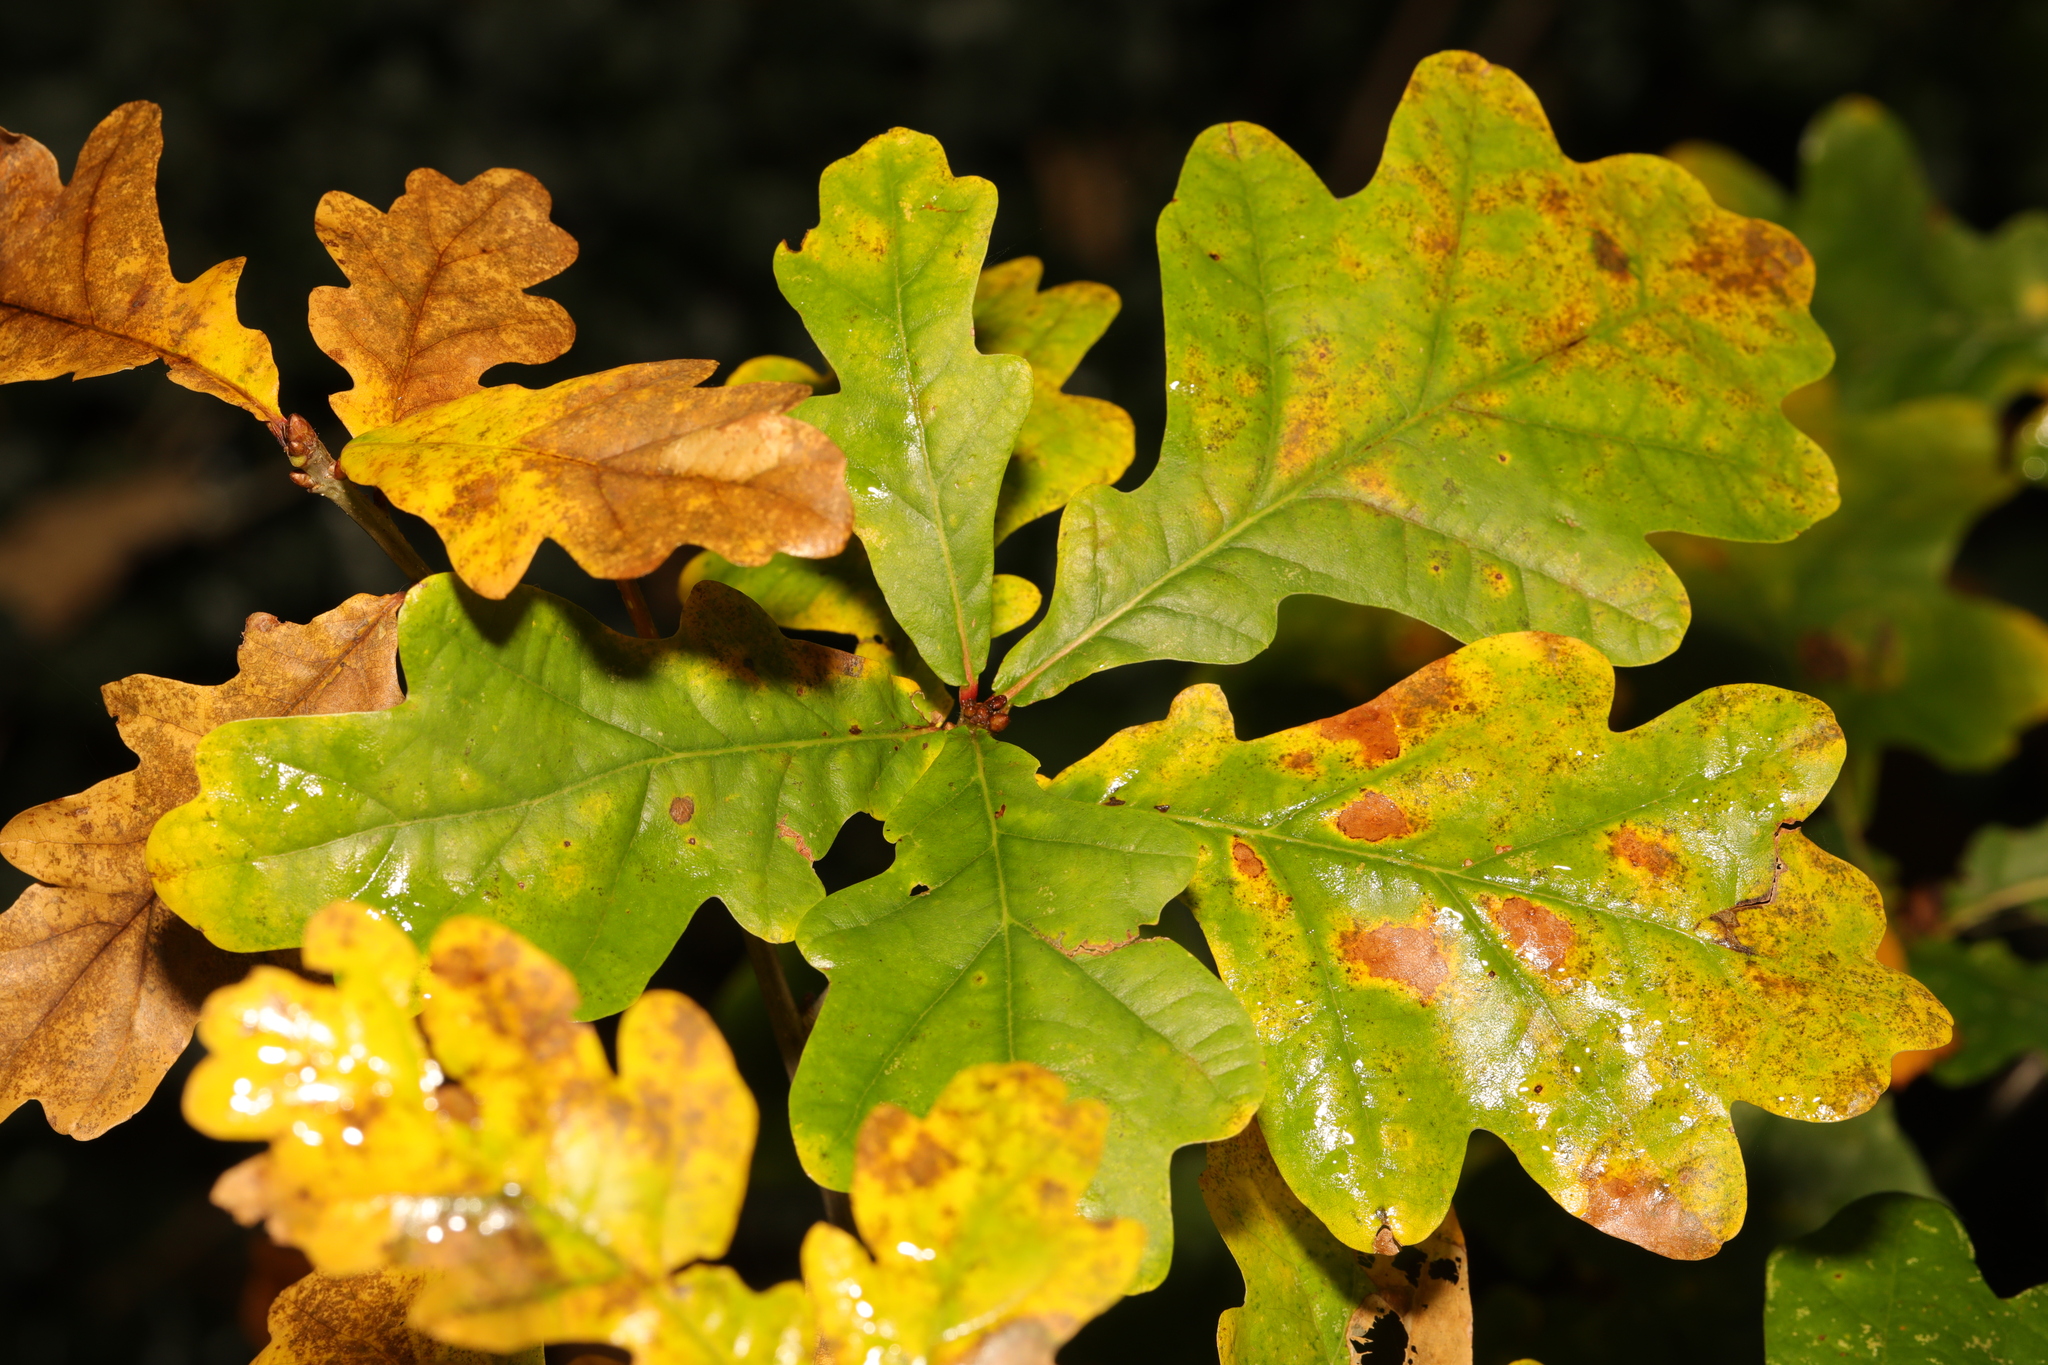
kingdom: Plantae
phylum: Tracheophyta
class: Magnoliopsida
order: Fagales
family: Fagaceae
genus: Quercus
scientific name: Quercus robur
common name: Pedunculate oak
